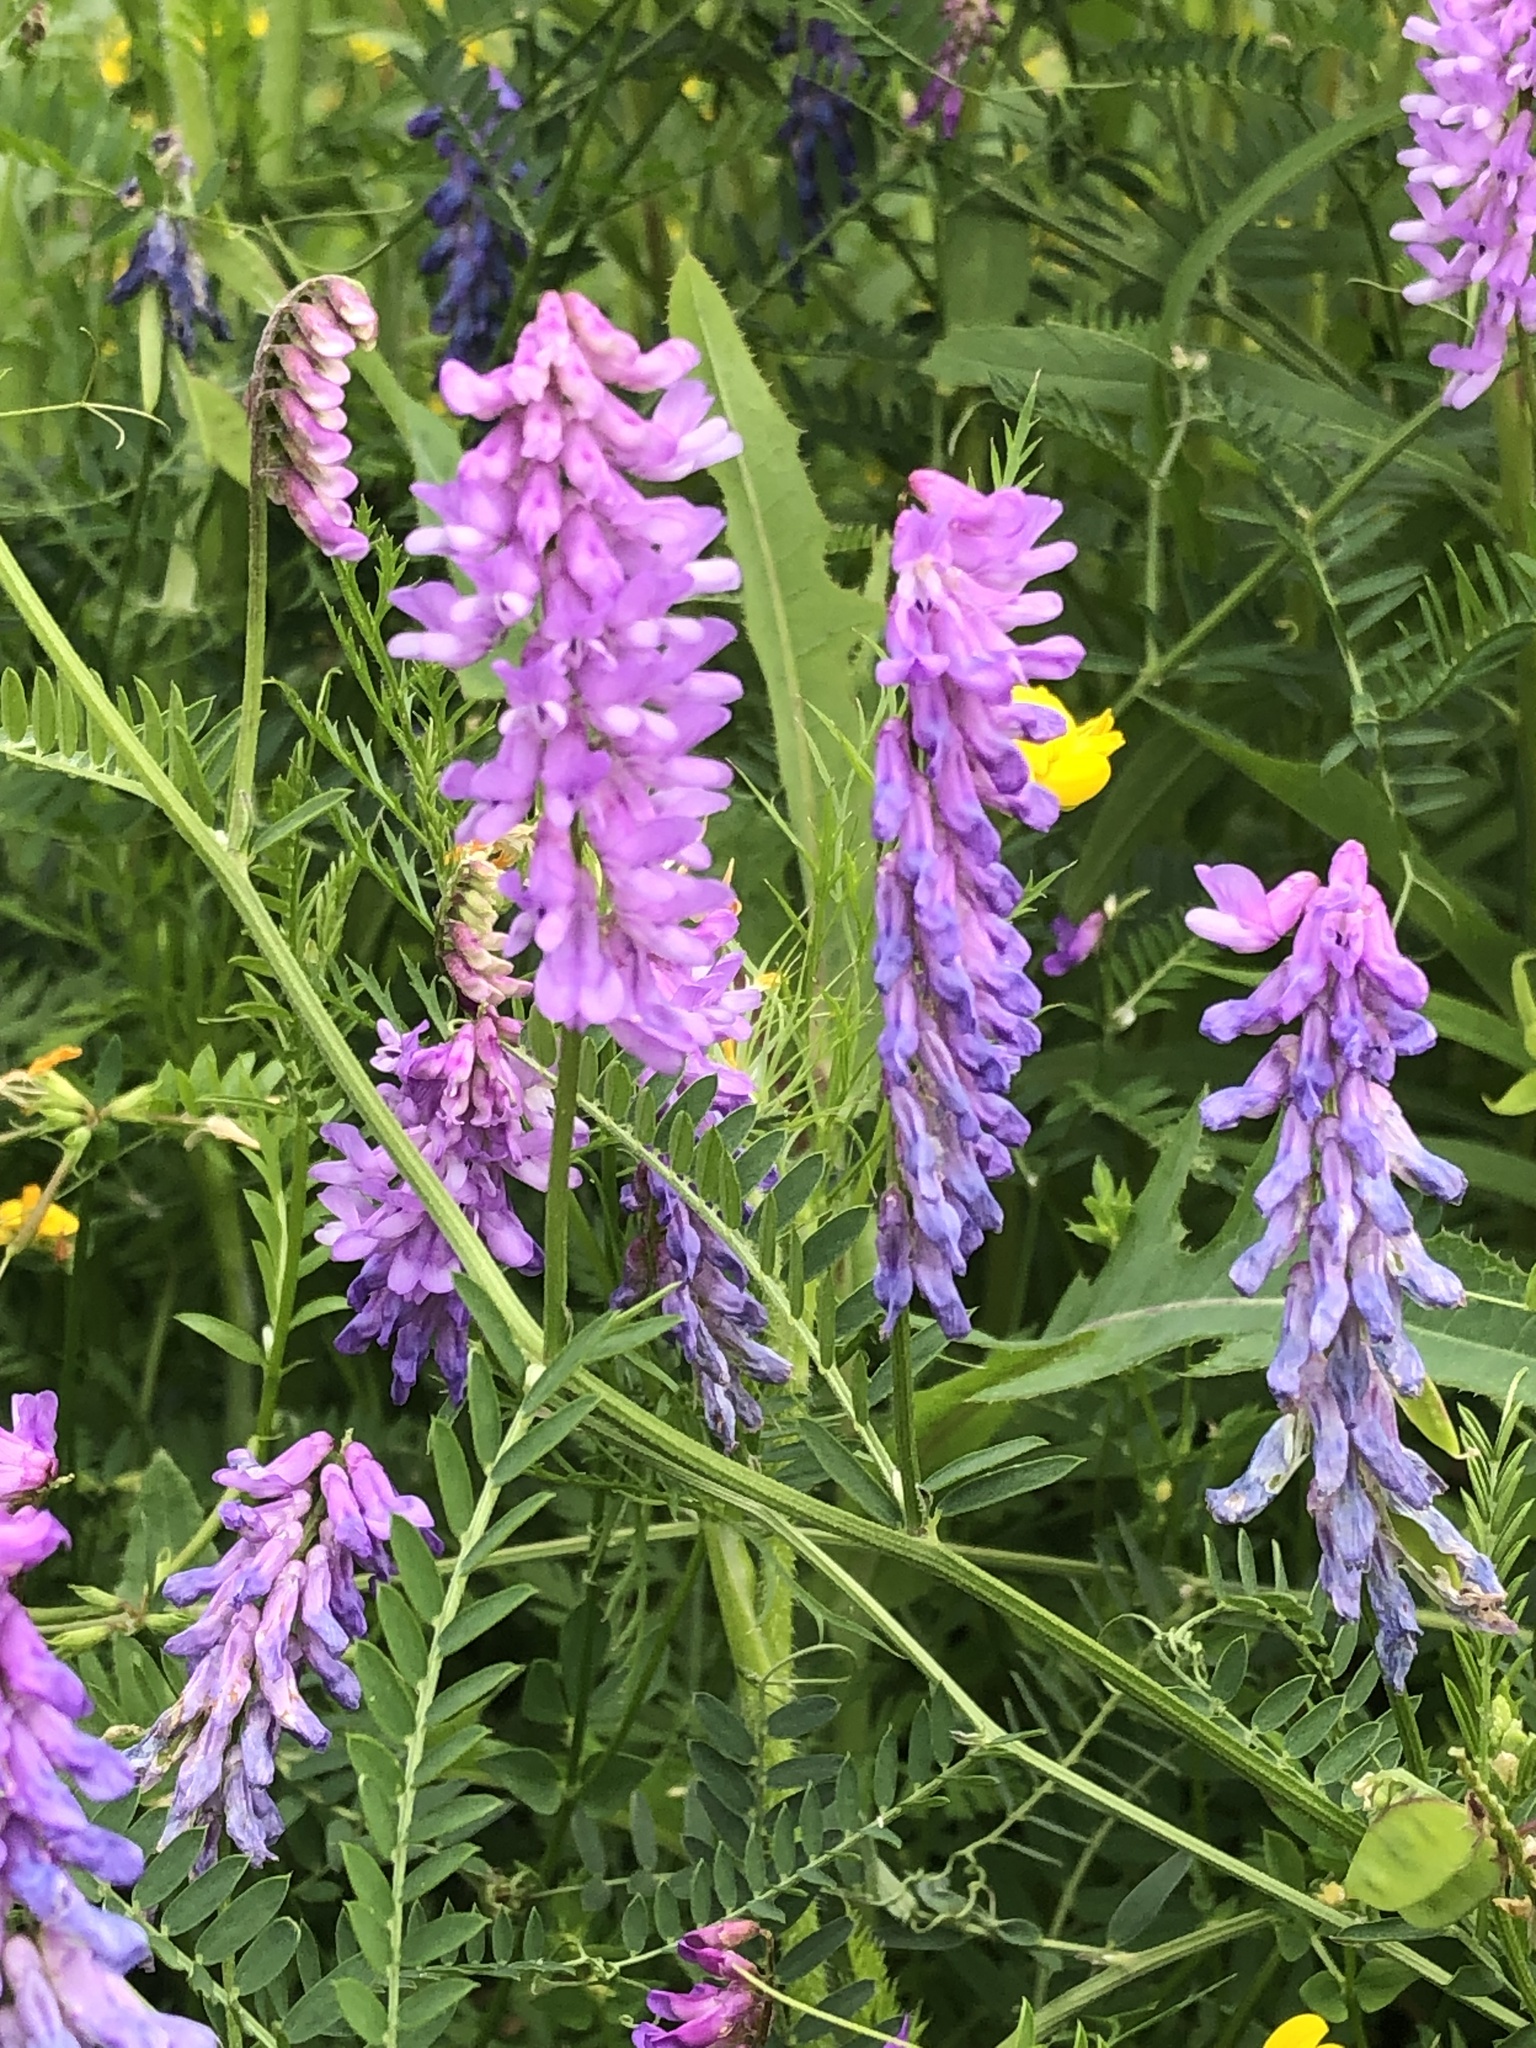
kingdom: Plantae
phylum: Tracheophyta
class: Magnoliopsida
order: Fabales
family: Fabaceae
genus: Vicia
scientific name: Vicia cracca
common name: Bird vetch
